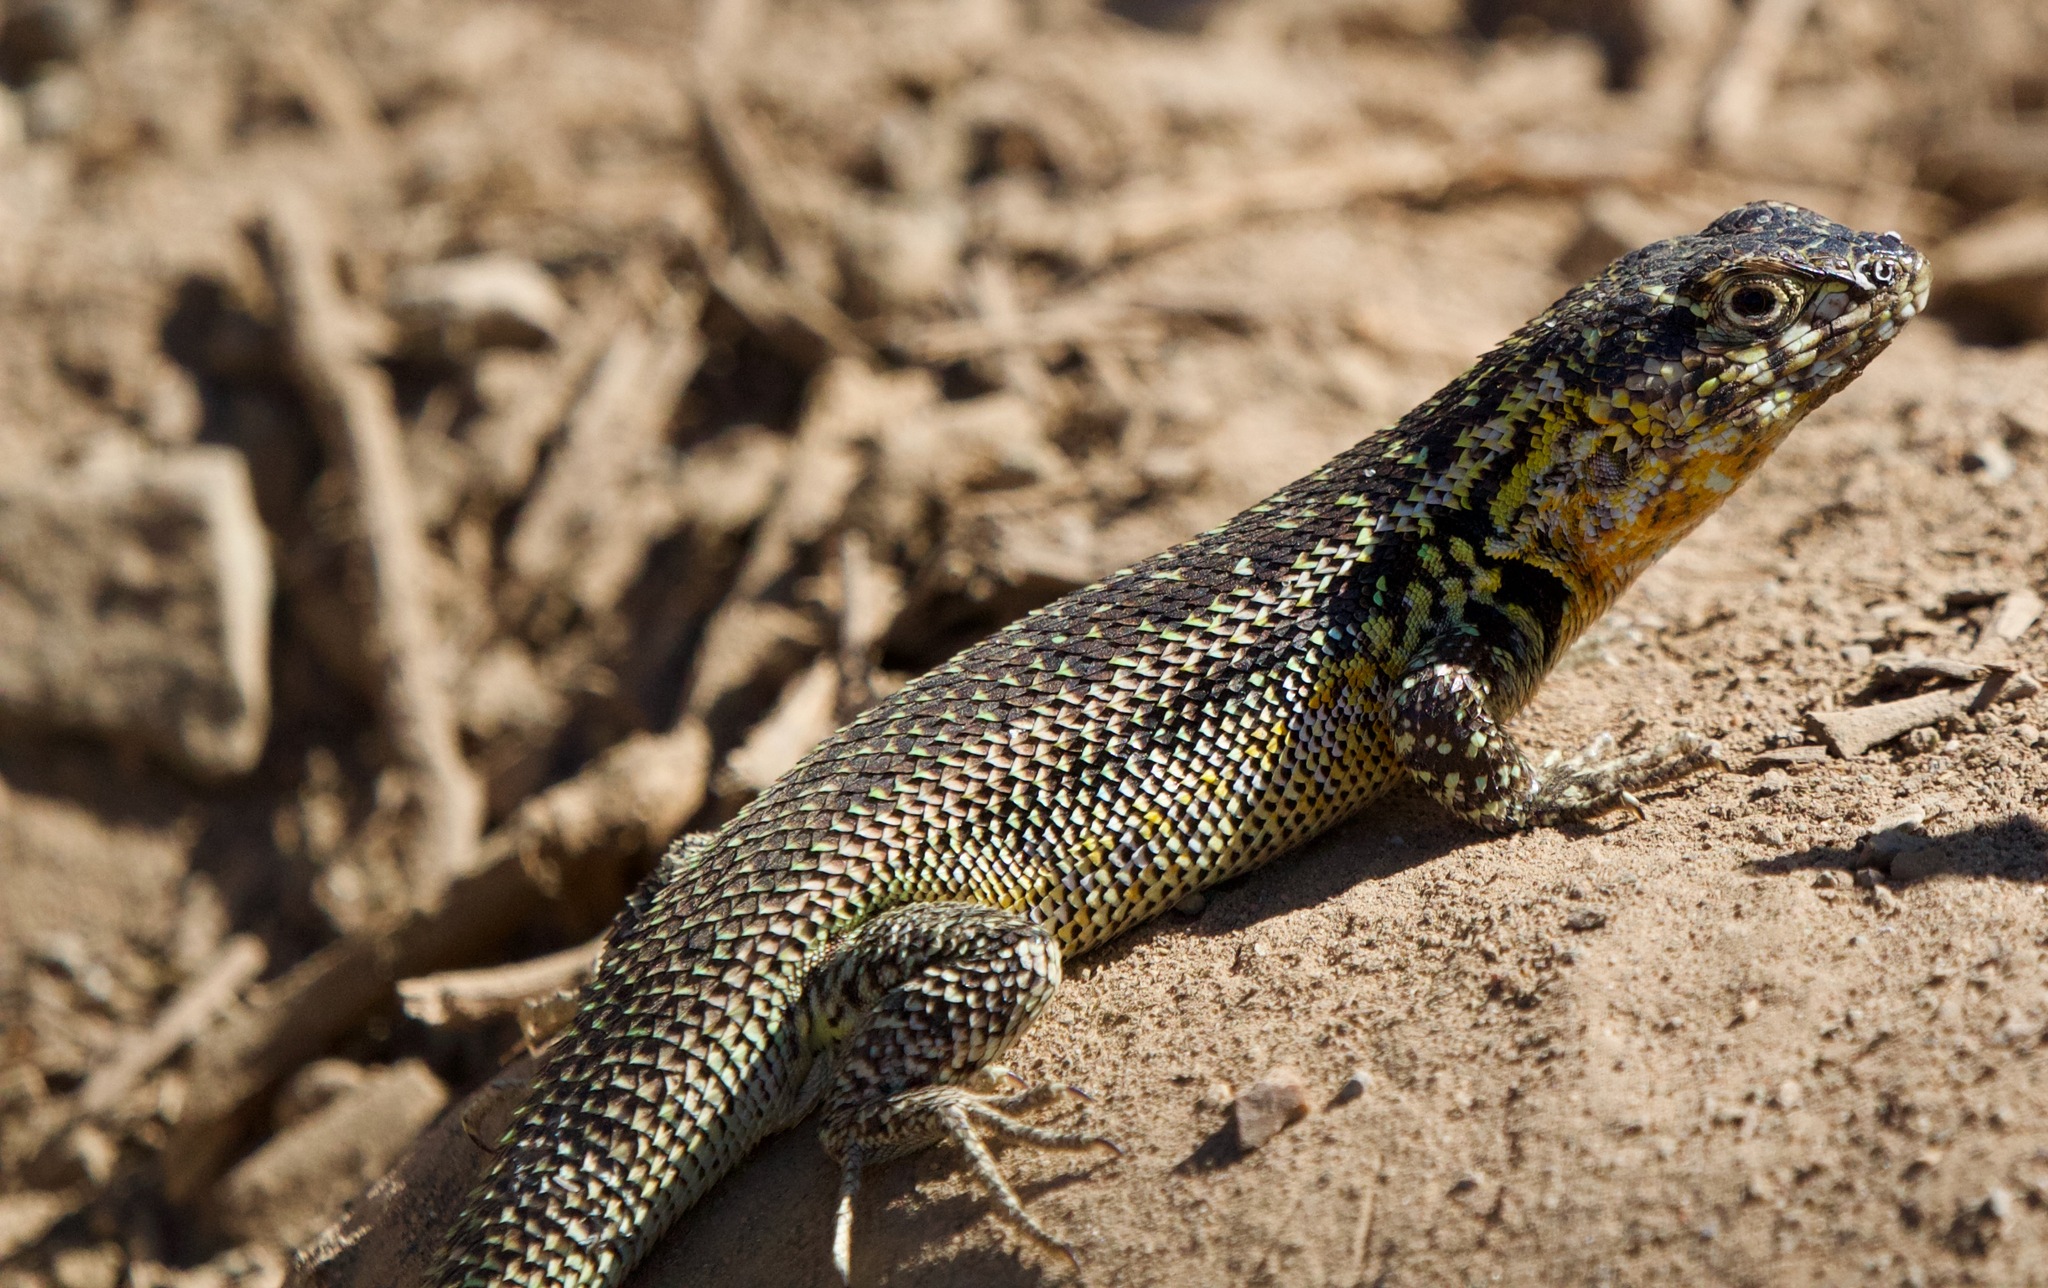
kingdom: Animalia
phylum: Chordata
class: Squamata
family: Liolaemidae
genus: Liolaemus
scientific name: Liolaemus zapallarensis
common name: Zapallaren tree iguana
